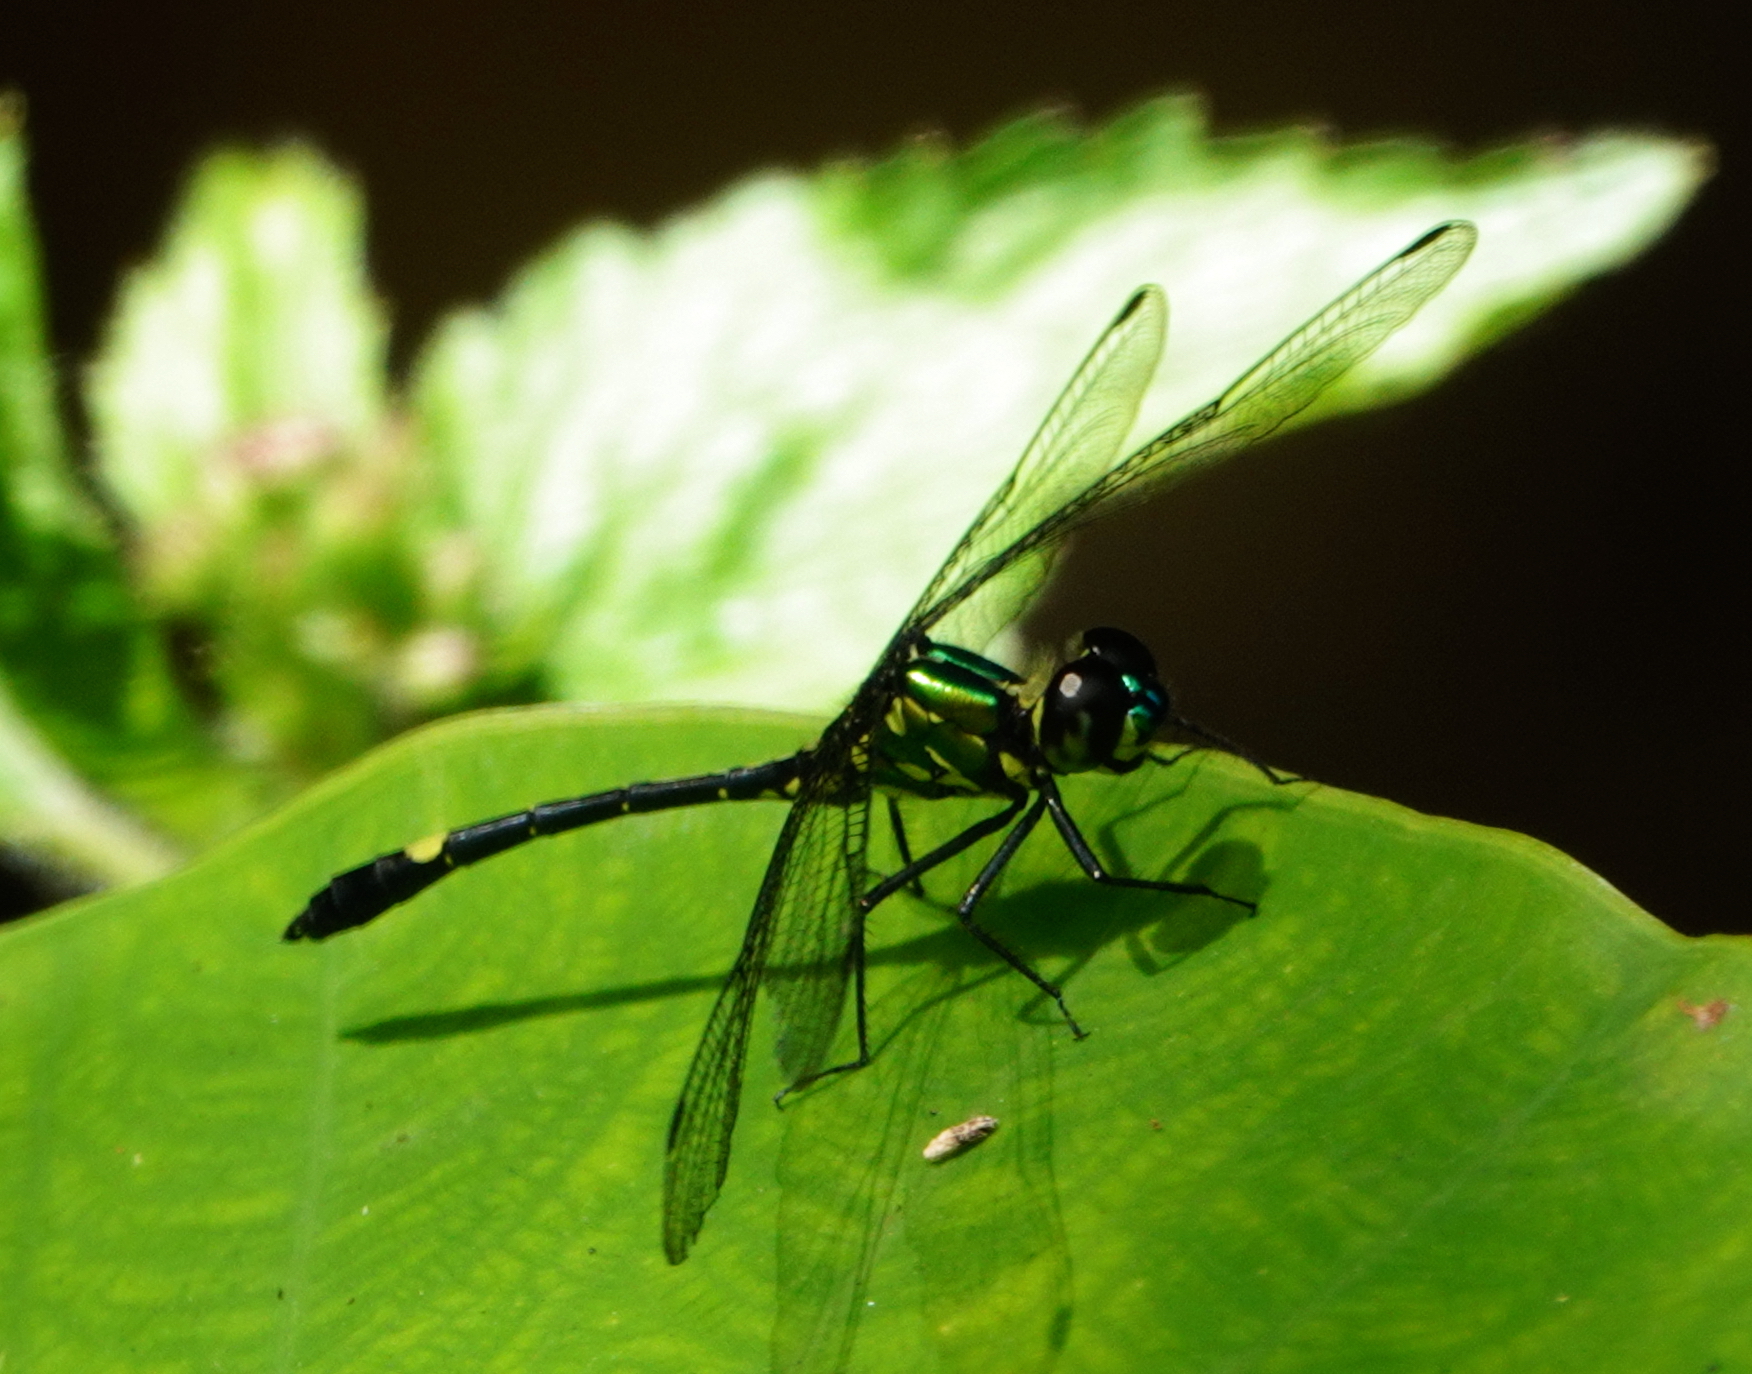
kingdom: Animalia
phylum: Arthropoda
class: Insecta
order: Odonata
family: Libellulidae
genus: Diplacina
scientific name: Diplacina phoebe
